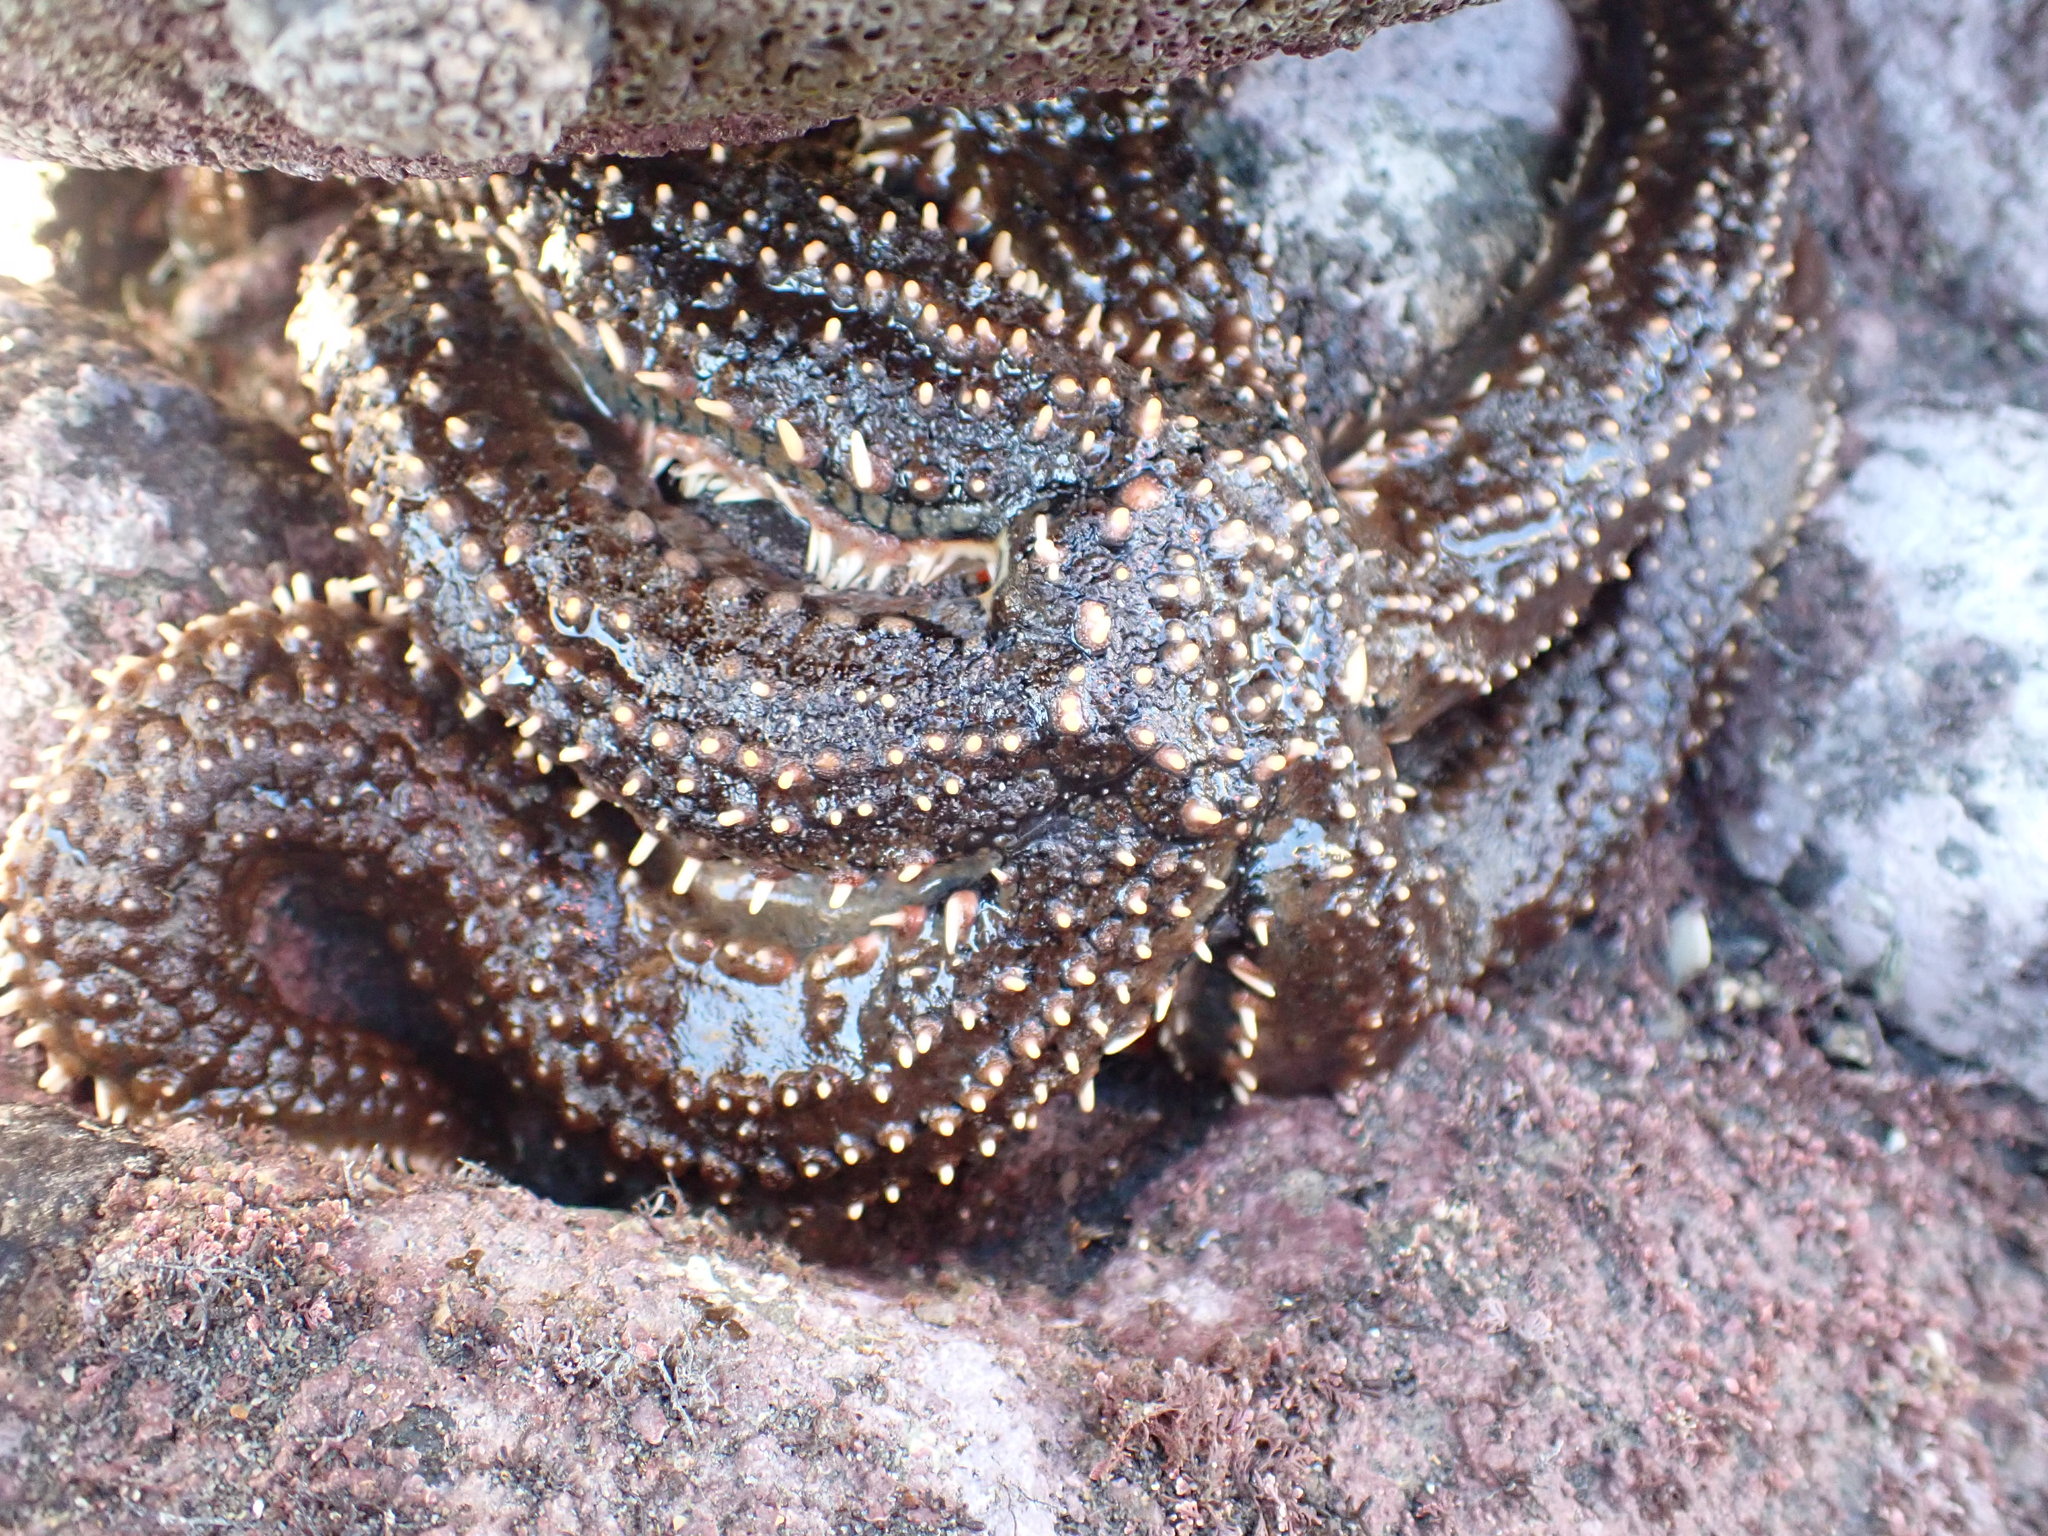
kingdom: Animalia
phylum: Echinodermata
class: Asteroidea
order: Forcipulatida
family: Asteriidae
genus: Astrostole
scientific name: Astrostole scabra
